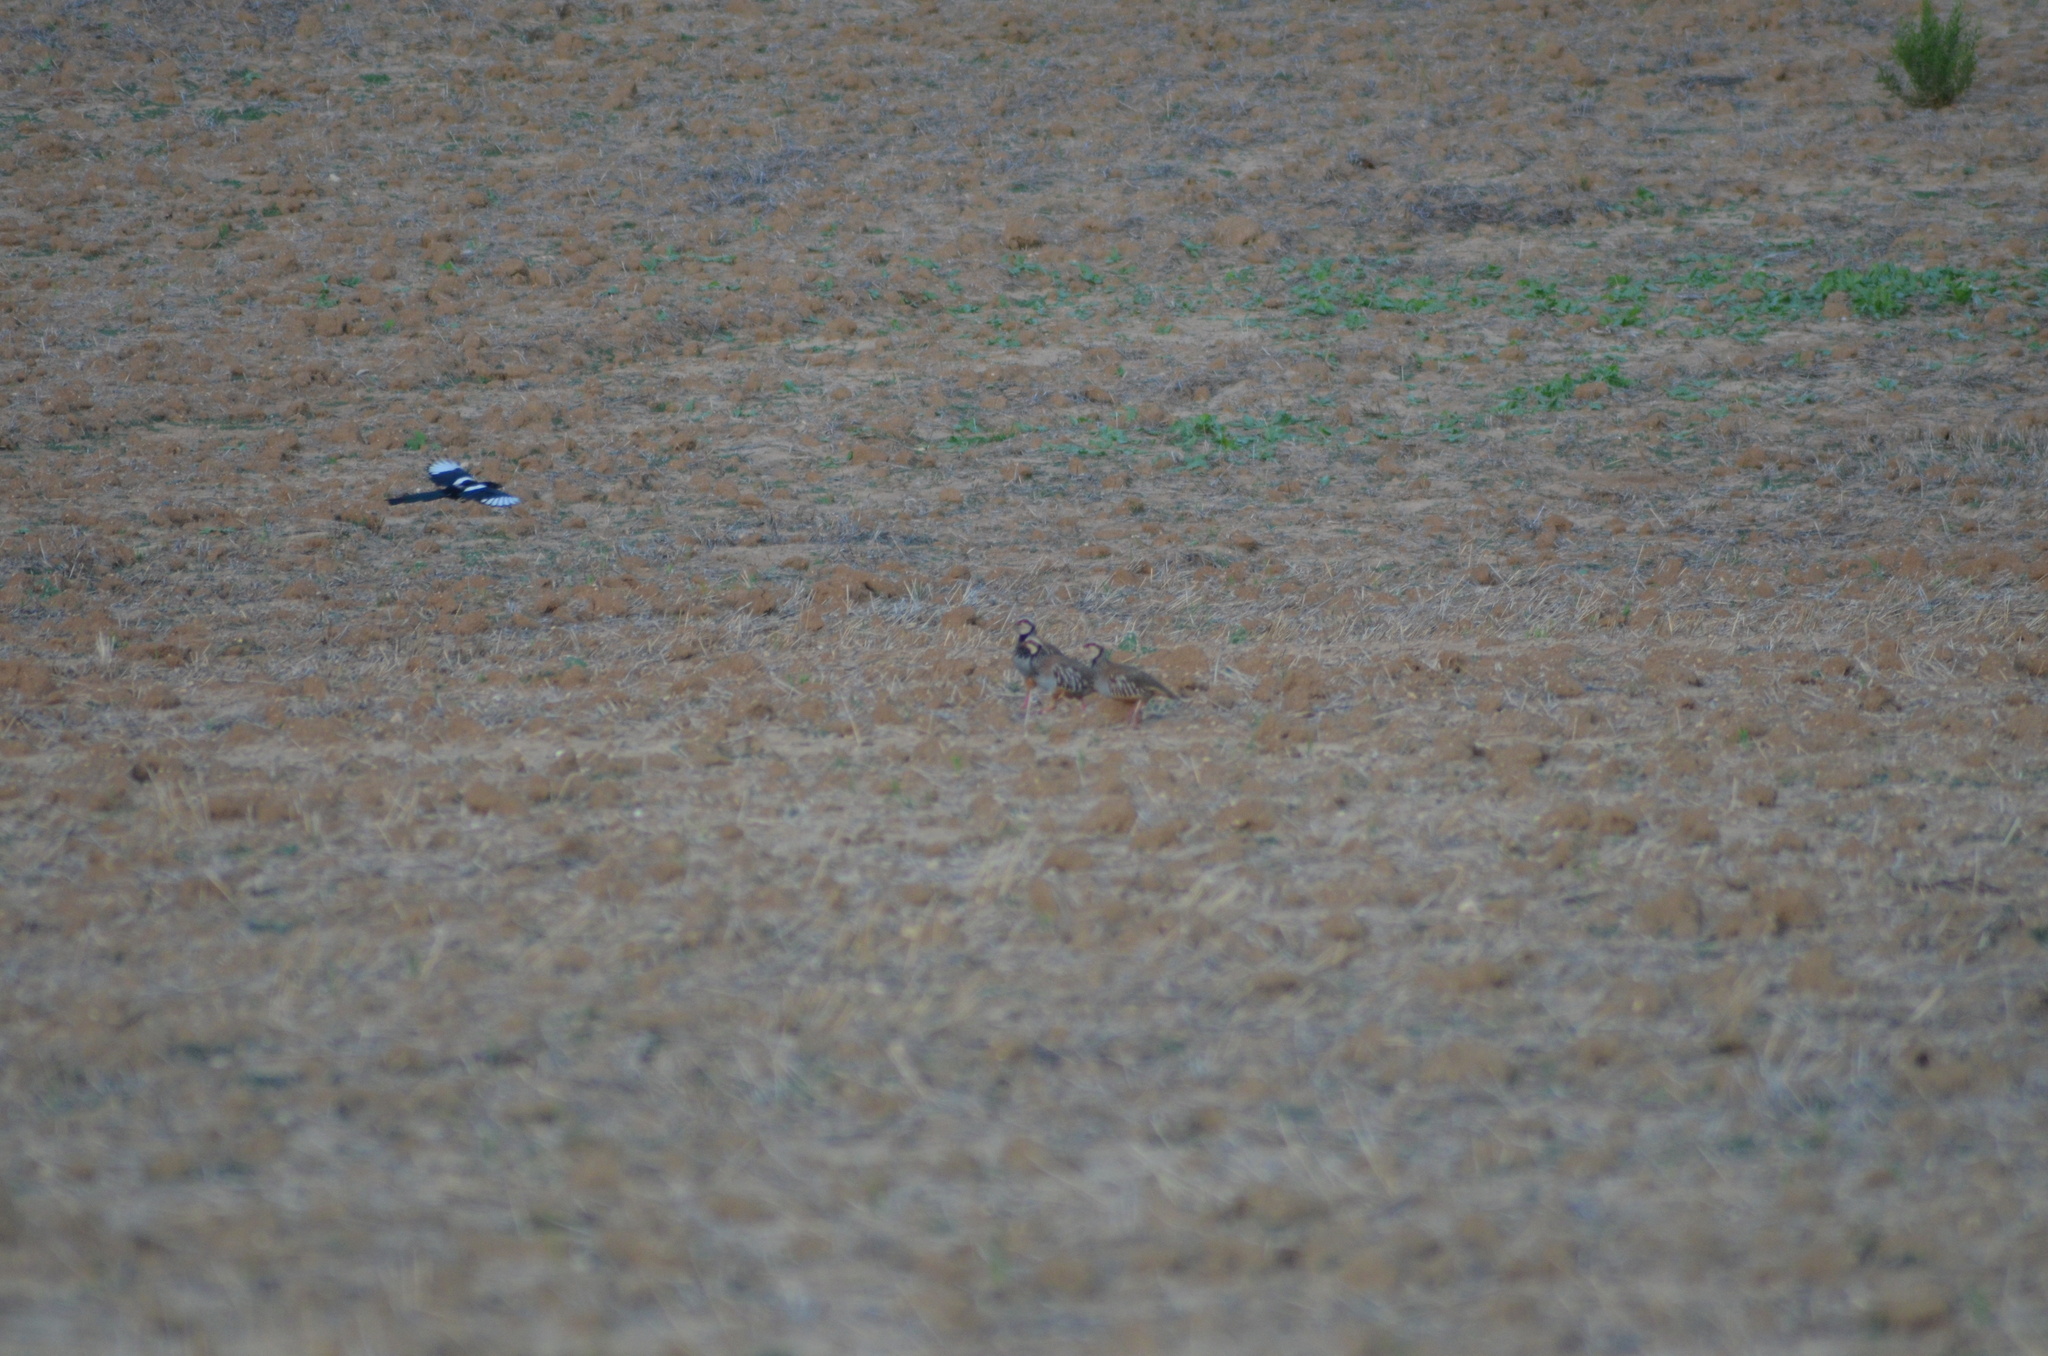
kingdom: Animalia
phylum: Chordata
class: Aves
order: Galliformes
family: Phasianidae
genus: Alectoris
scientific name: Alectoris rufa
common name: Red-legged partridge
